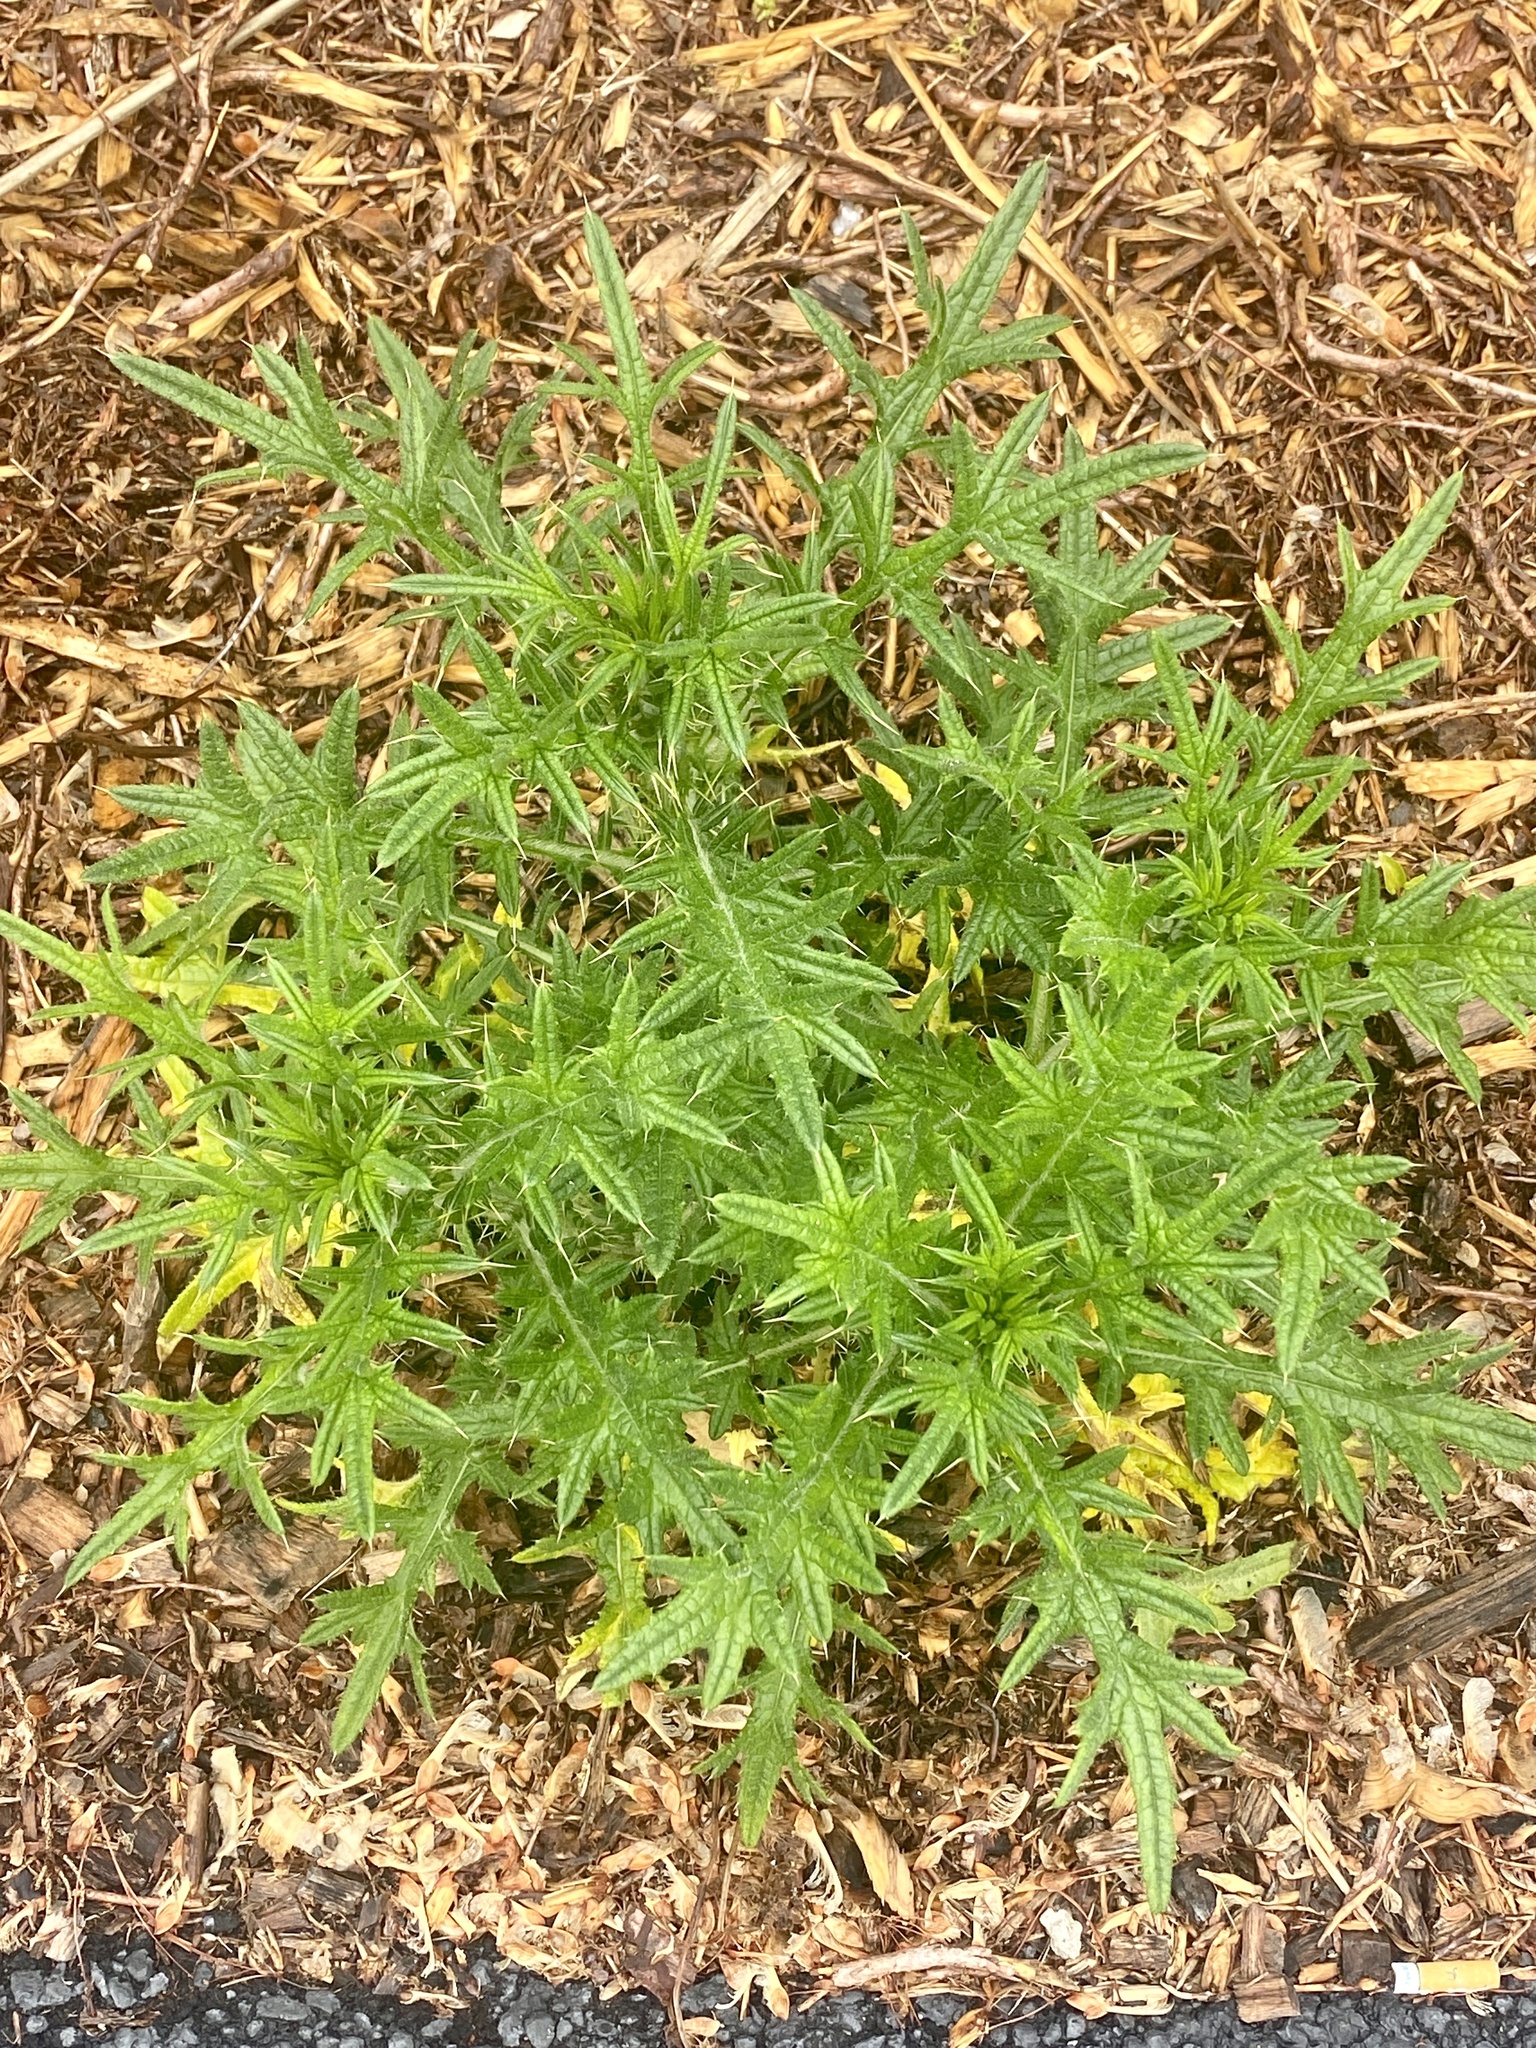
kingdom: Plantae
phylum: Tracheophyta
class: Magnoliopsida
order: Asterales
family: Asteraceae
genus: Cirsium
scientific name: Cirsium vulgare
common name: Bull thistle
